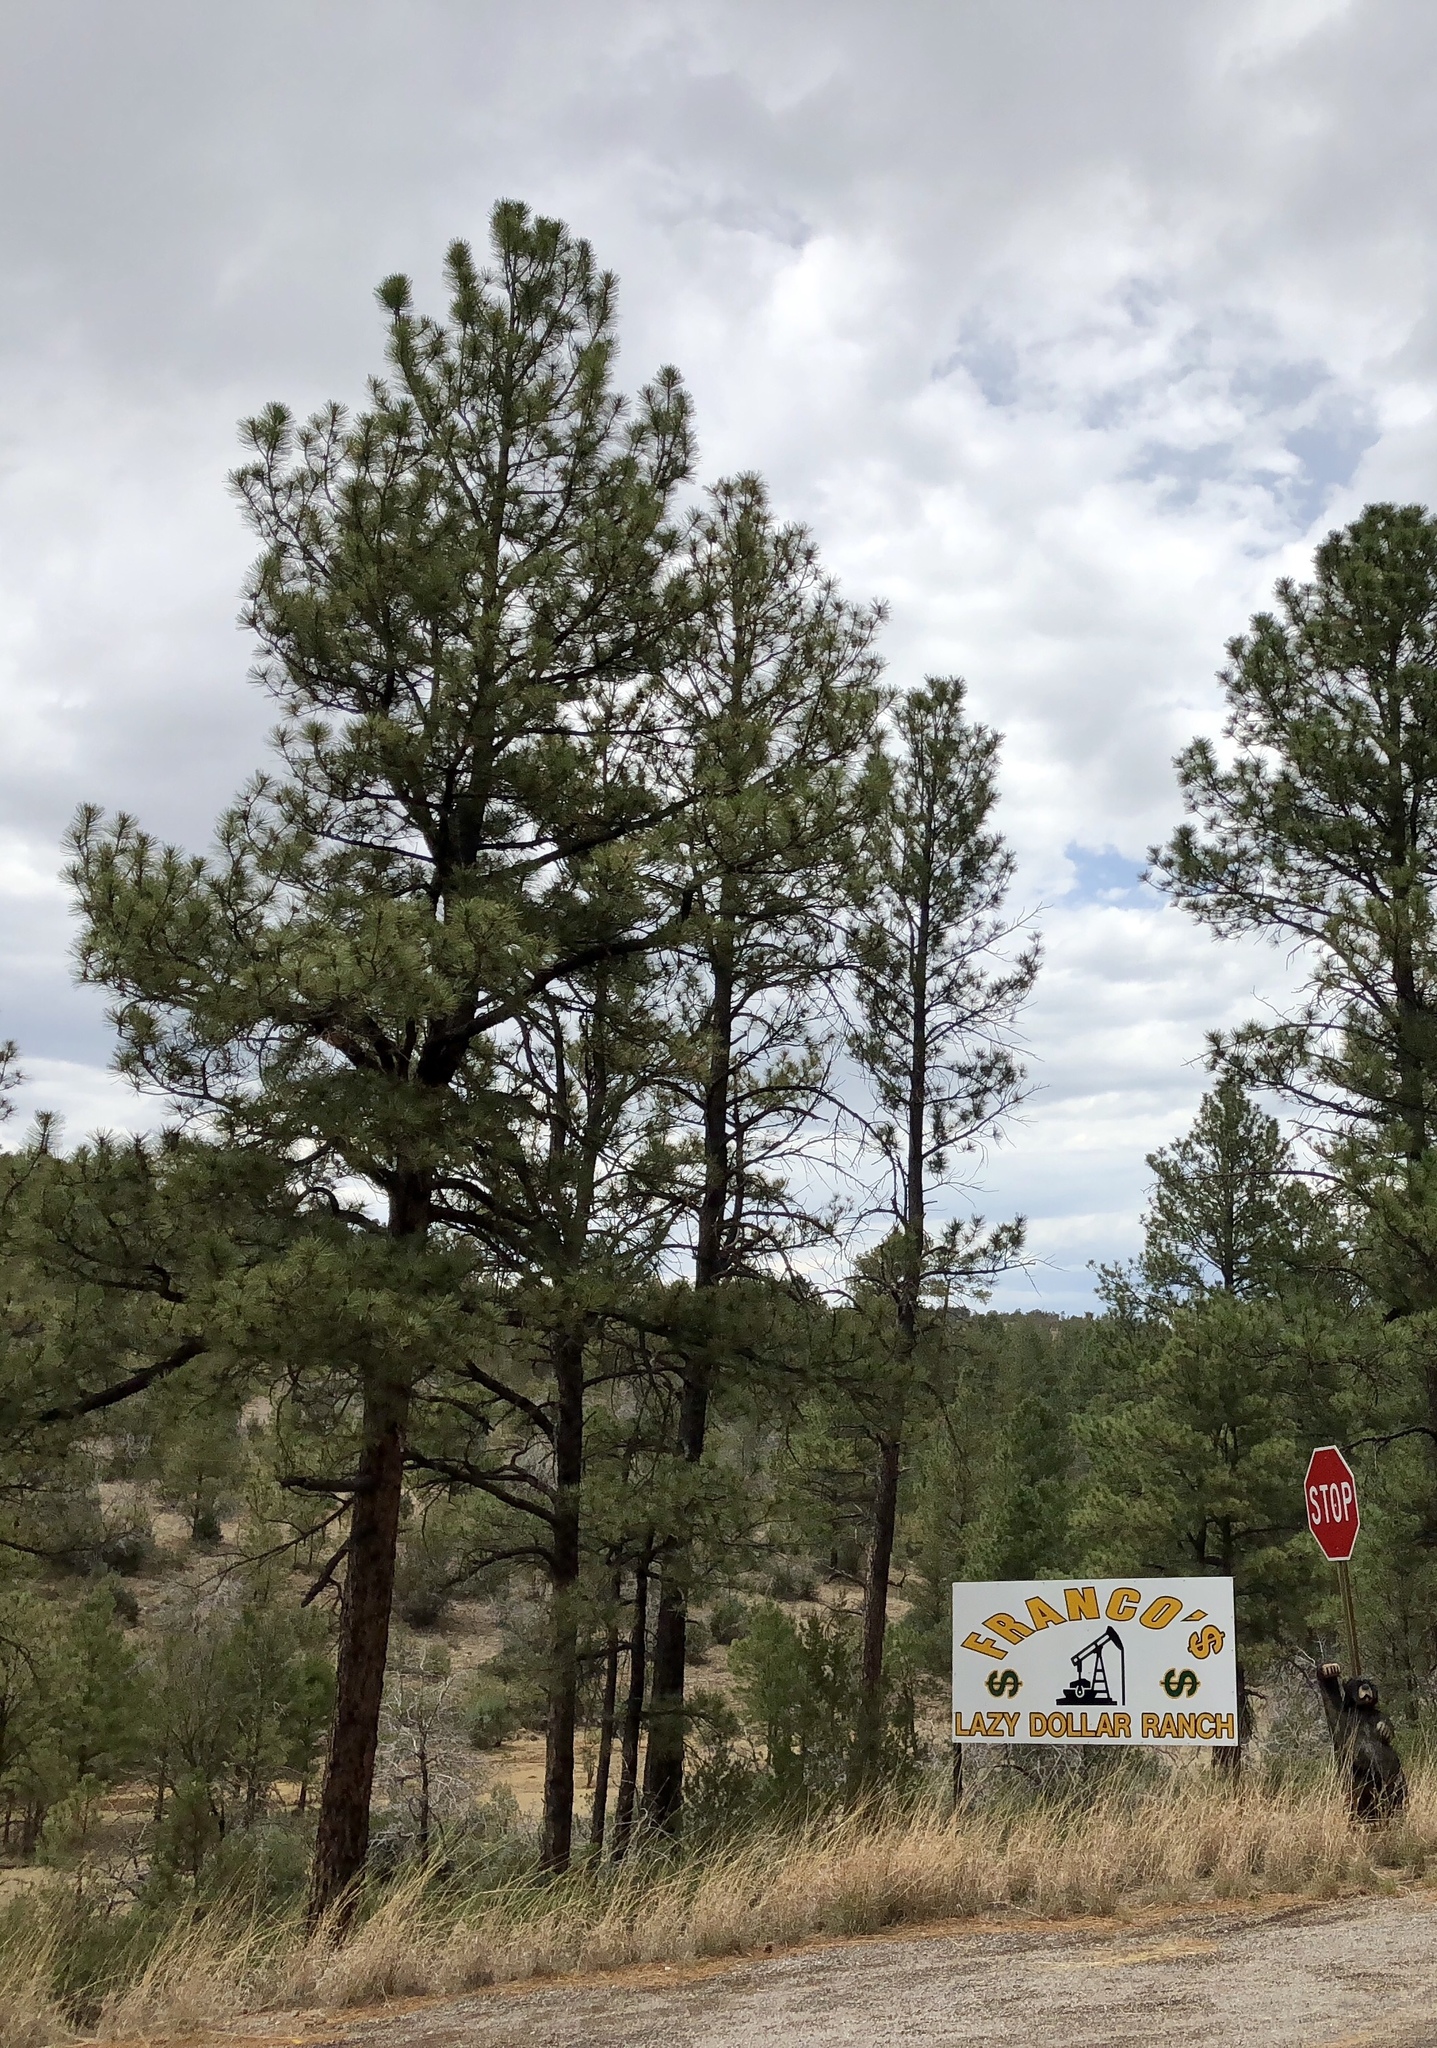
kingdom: Plantae
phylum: Tracheophyta
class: Pinopsida
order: Pinales
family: Pinaceae
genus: Pinus
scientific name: Pinus ponderosa
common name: Western yellow-pine
